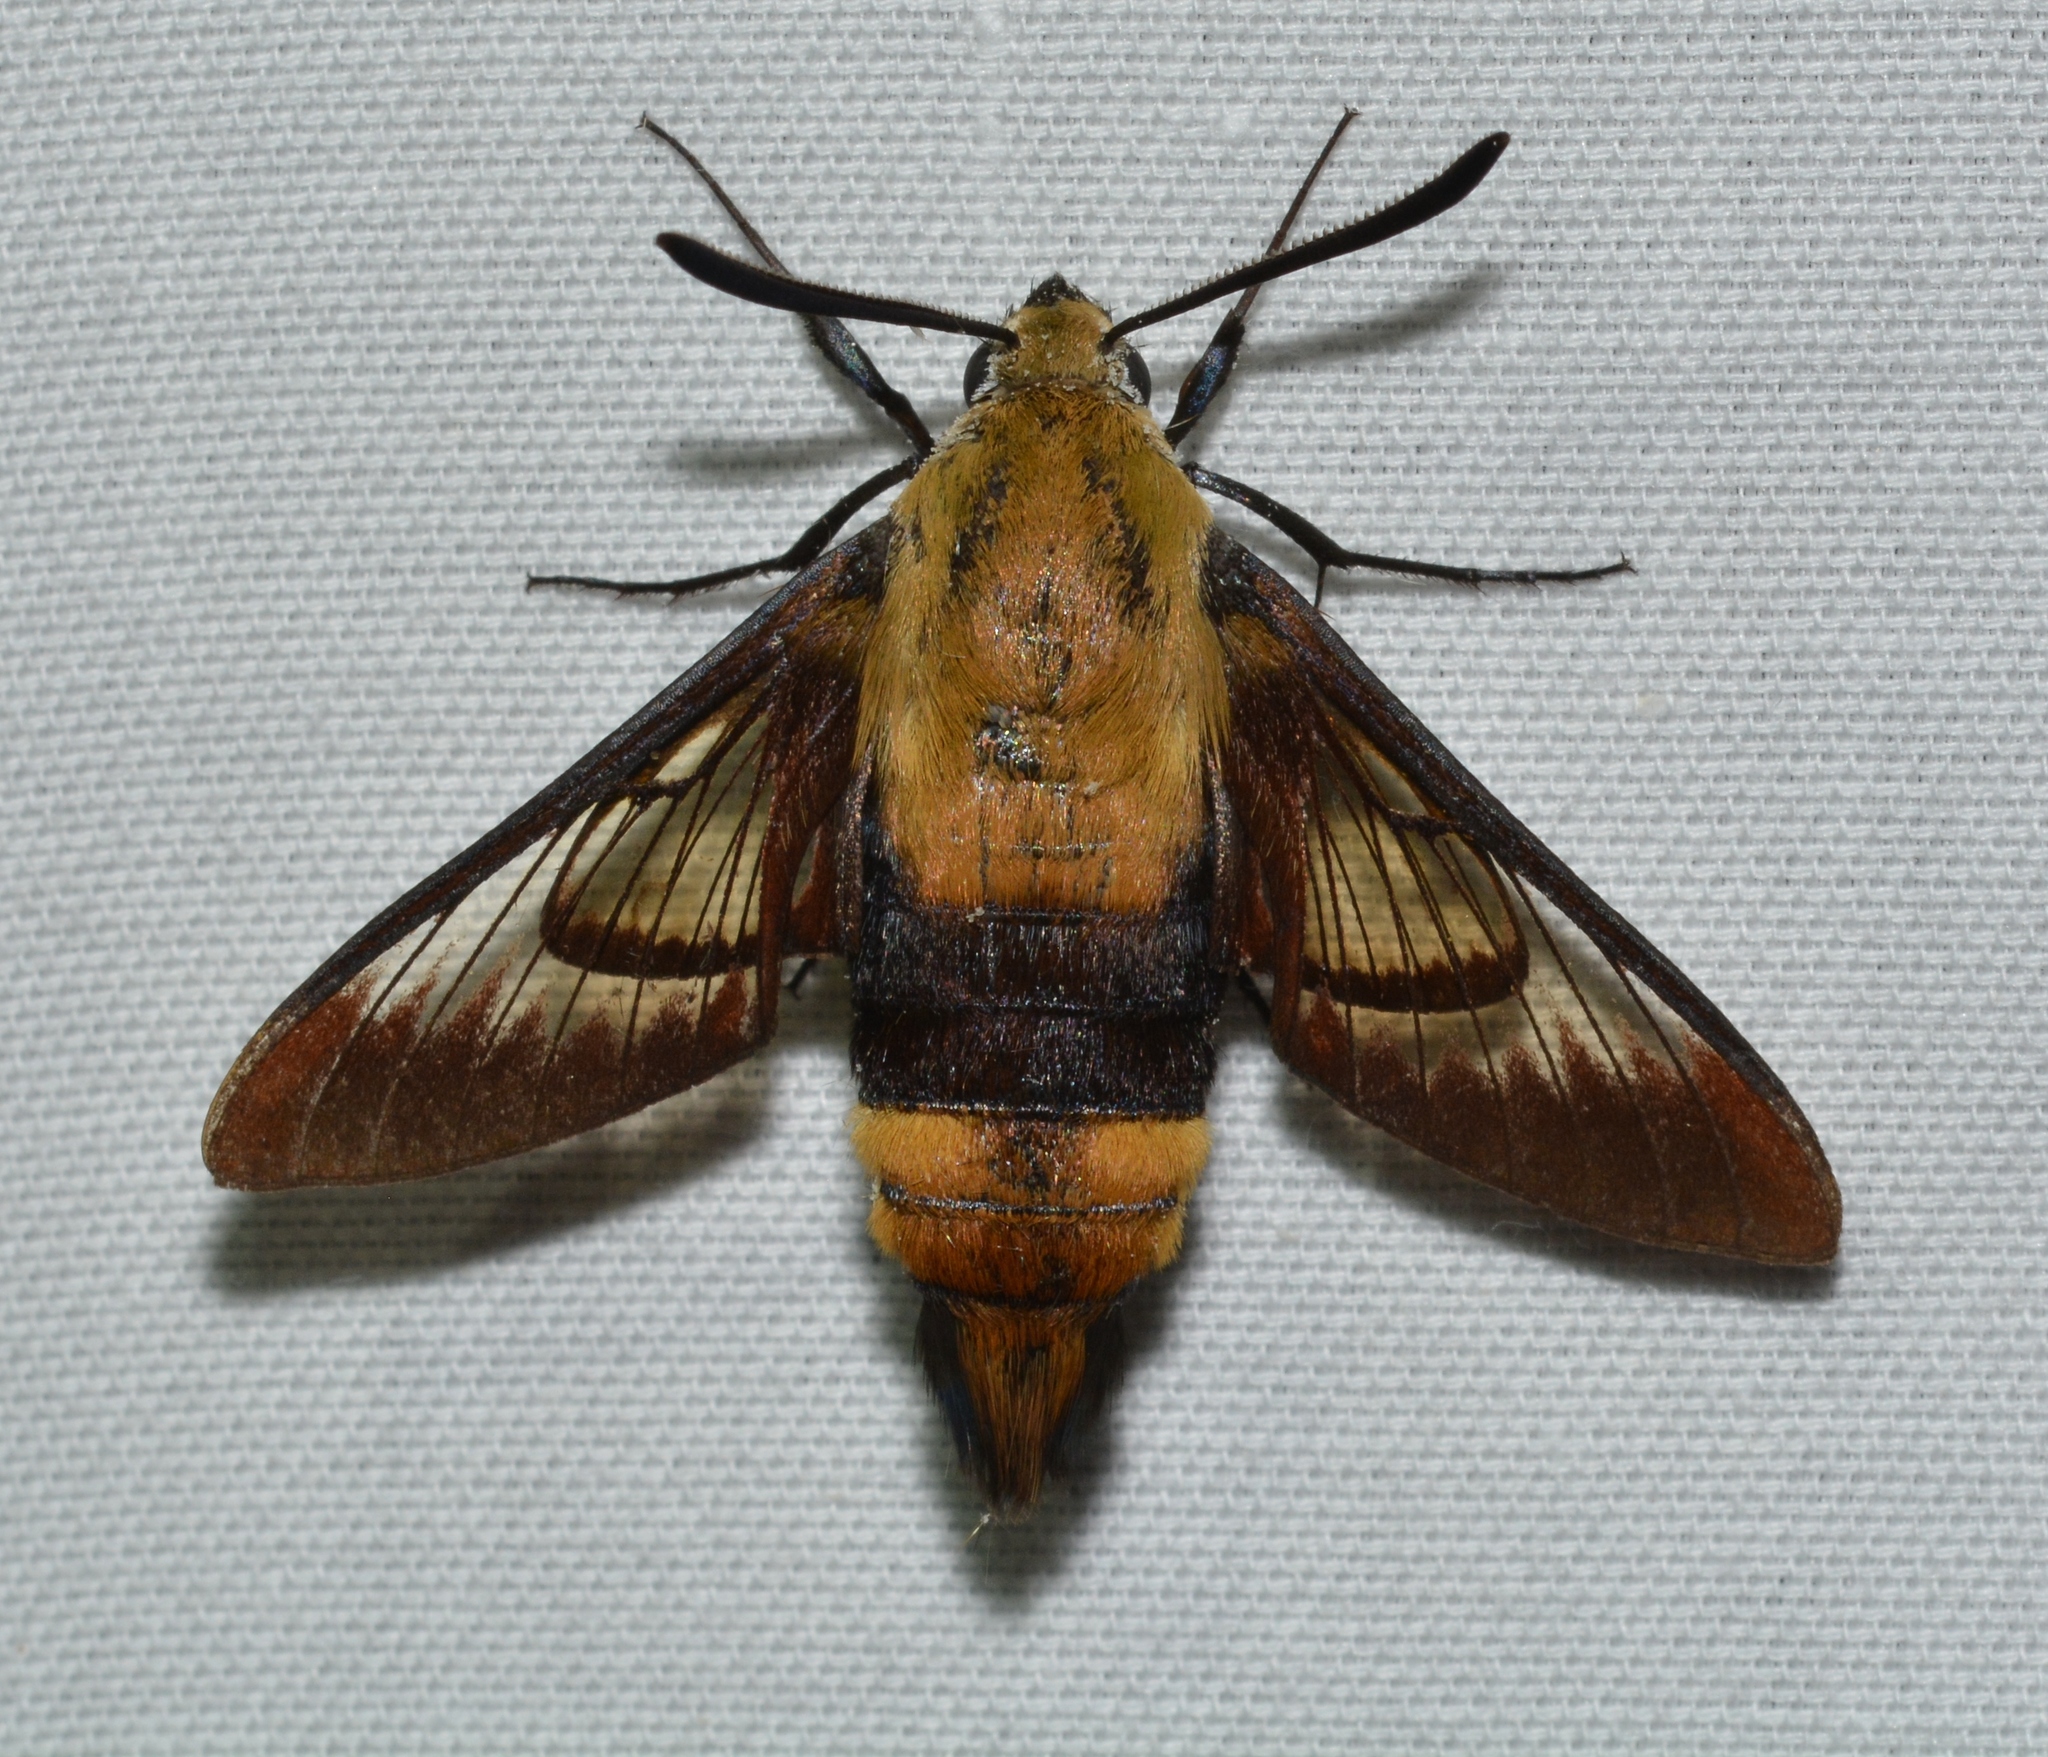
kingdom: Animalia
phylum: Arthropoda
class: Insecta
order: Lepidoptera
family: Sphingidae
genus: Hemaris
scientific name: Hemaris diffinis
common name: Bumblebee moth
